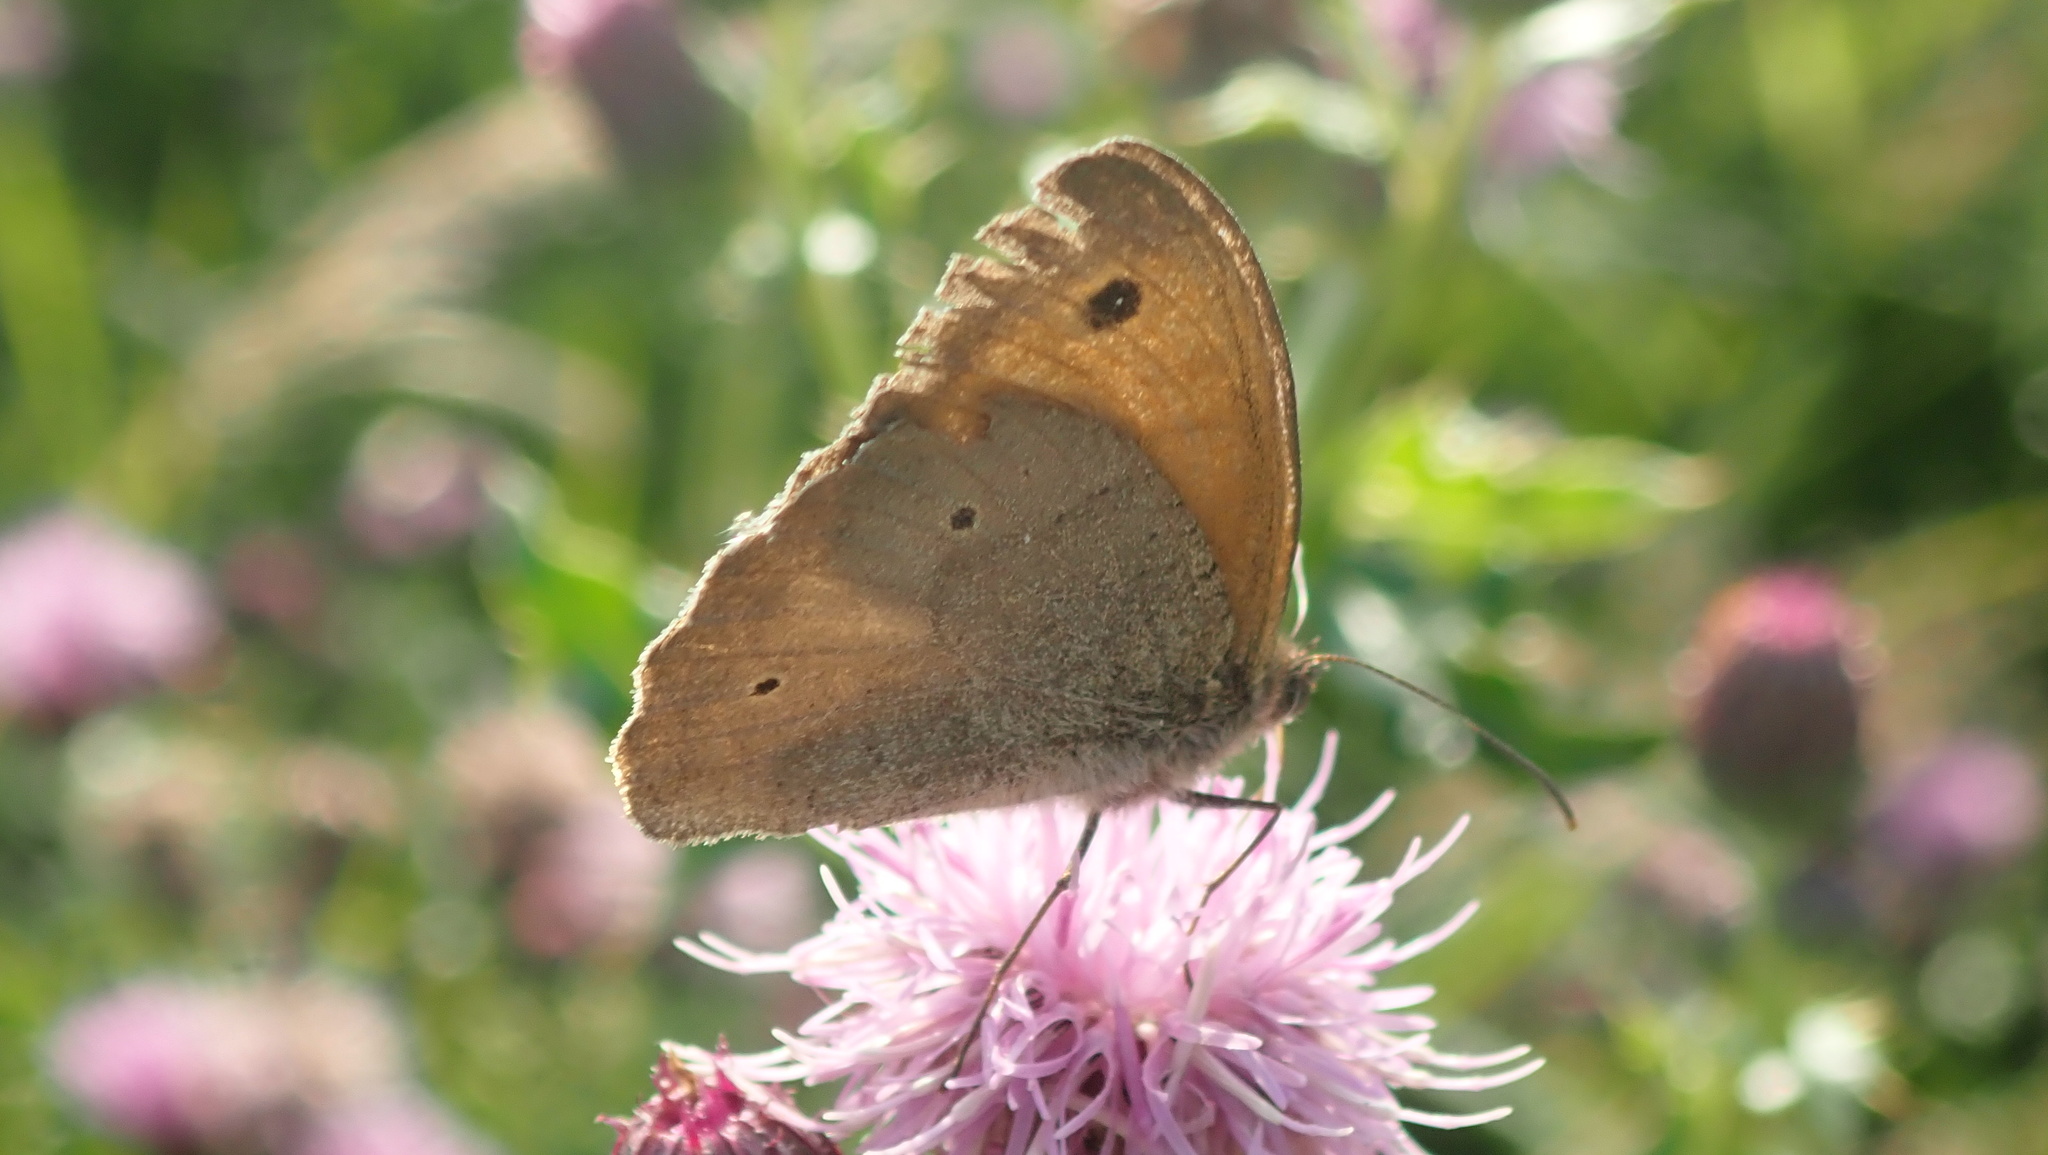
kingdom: Animalia
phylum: Arthropoda
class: Insecta
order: Lepidoptera
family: Nymphalidae
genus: Maniola
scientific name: Maniola jurtina
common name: Meadow brown
